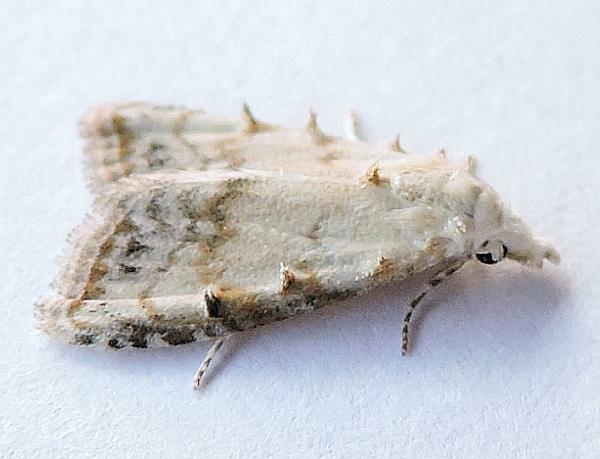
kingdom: Animalia
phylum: Arthropoda
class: Insecta
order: Lepidoptera
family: Nolidae
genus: Nola
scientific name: Nola cereella
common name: Sorghum webworm moth
